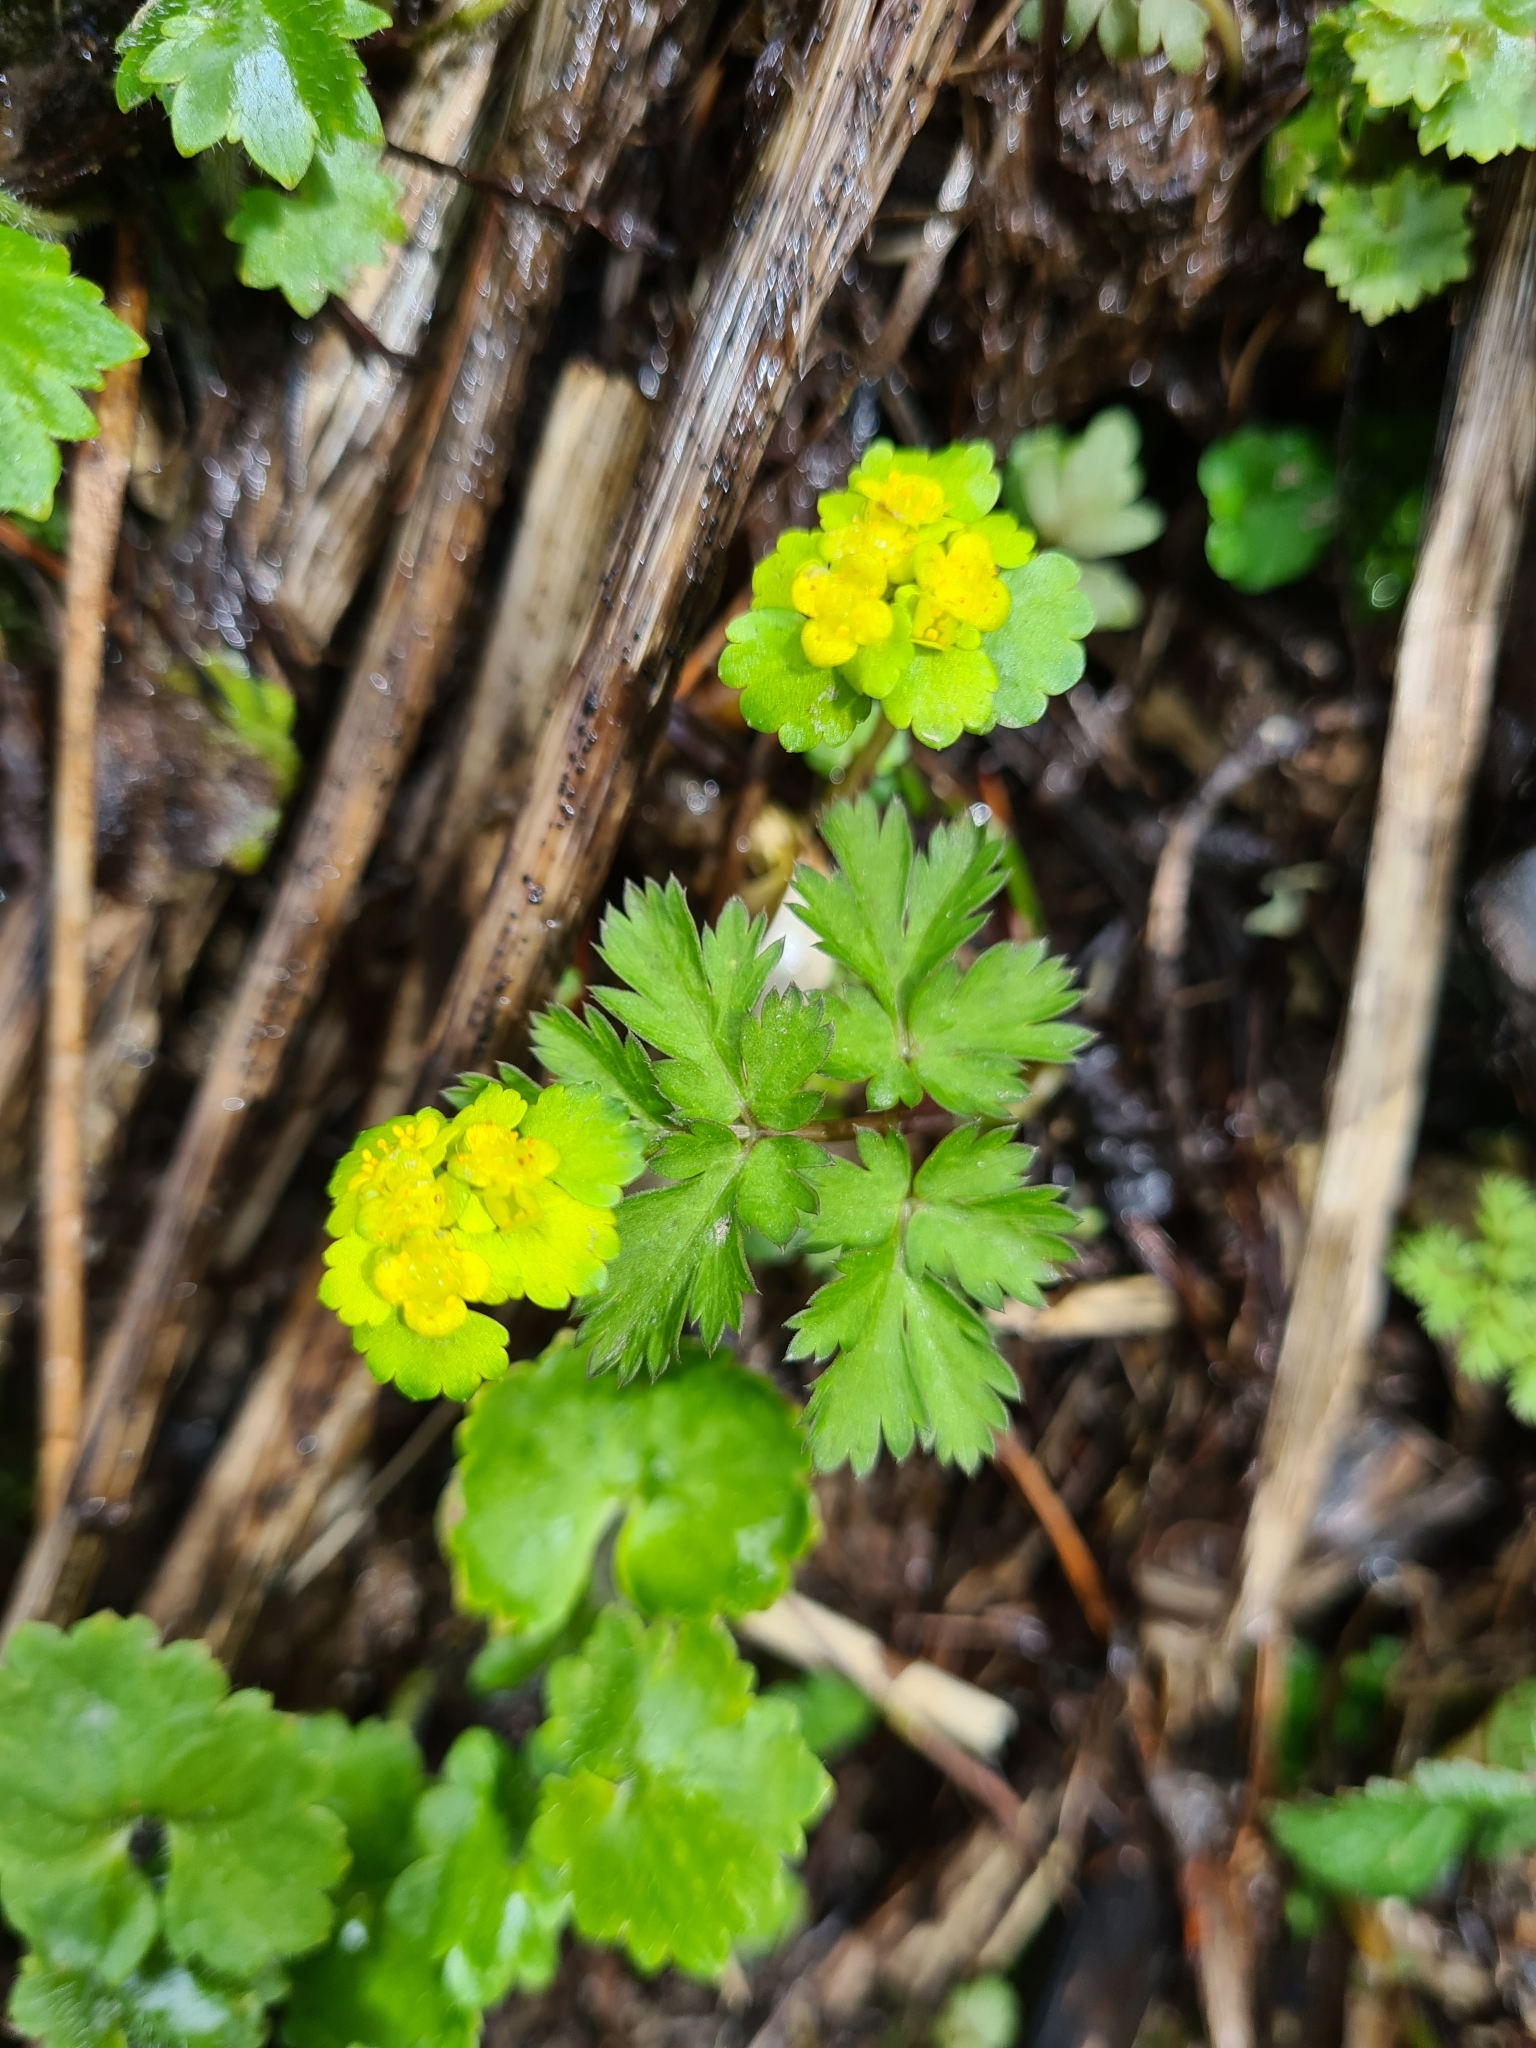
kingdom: Plantae
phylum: Tracheophyta
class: Magnoliopsida
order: Saxifragales
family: Saxifragaceae
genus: Chrysosplenium
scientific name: Chrysosplenium alternifolium
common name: Alternate-leaved golden-saxifrage
